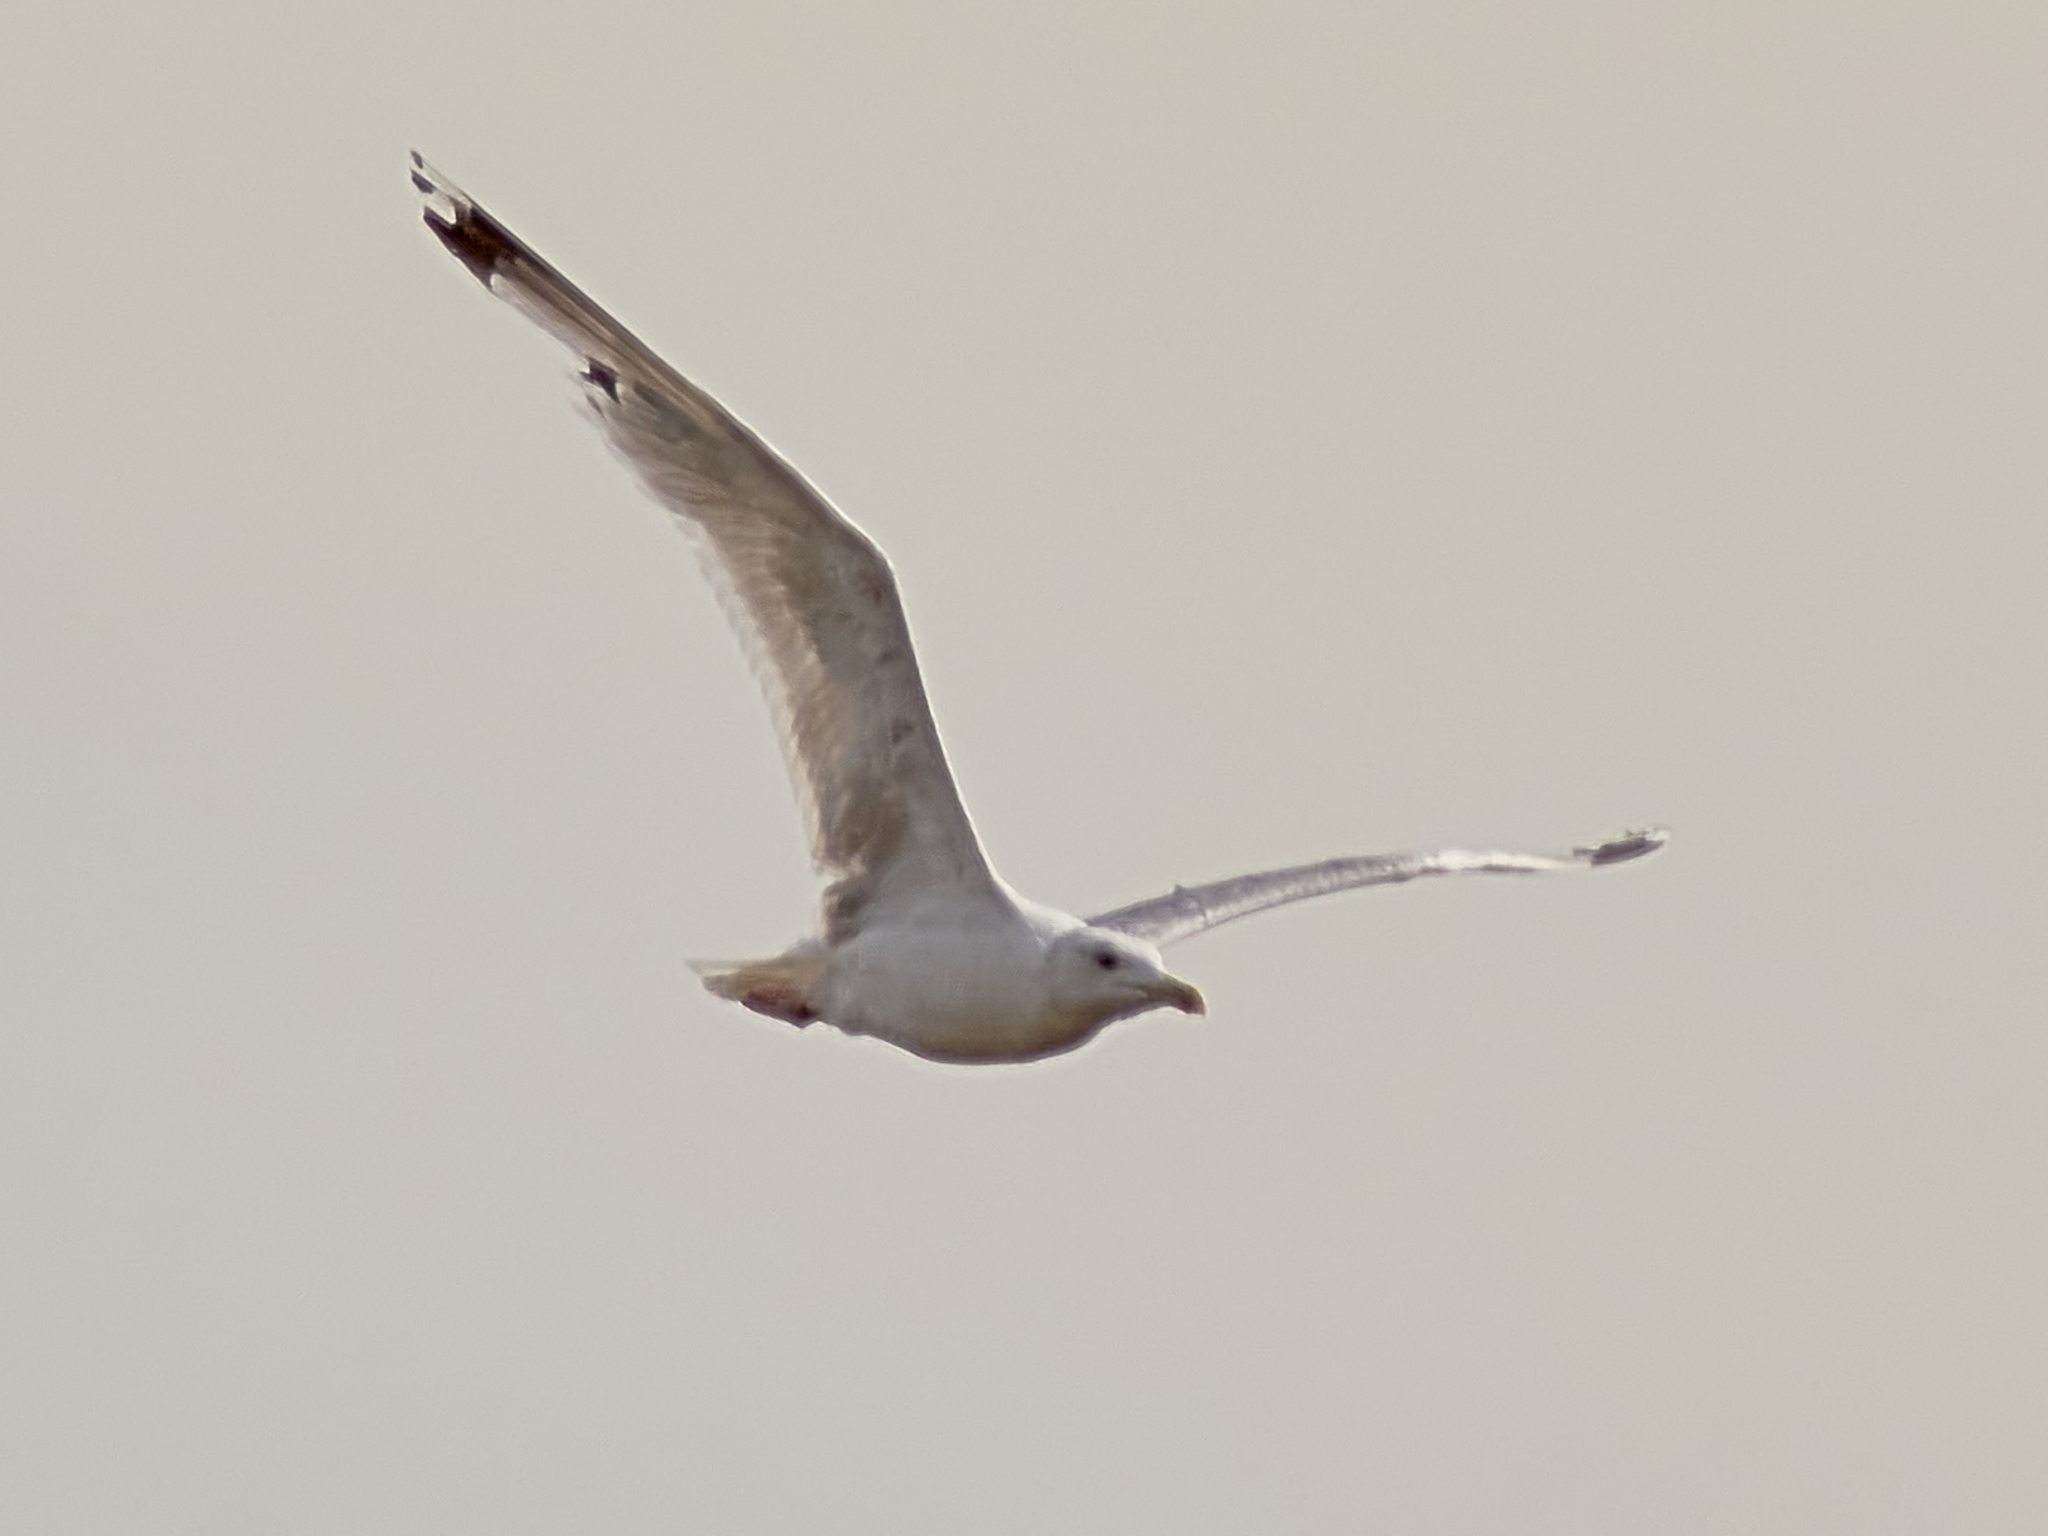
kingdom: Animalia
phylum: Chordata
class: Aves
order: Charadriiformes
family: Laridae
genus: Larus
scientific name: Larus cachinnans
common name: Caspian gull
